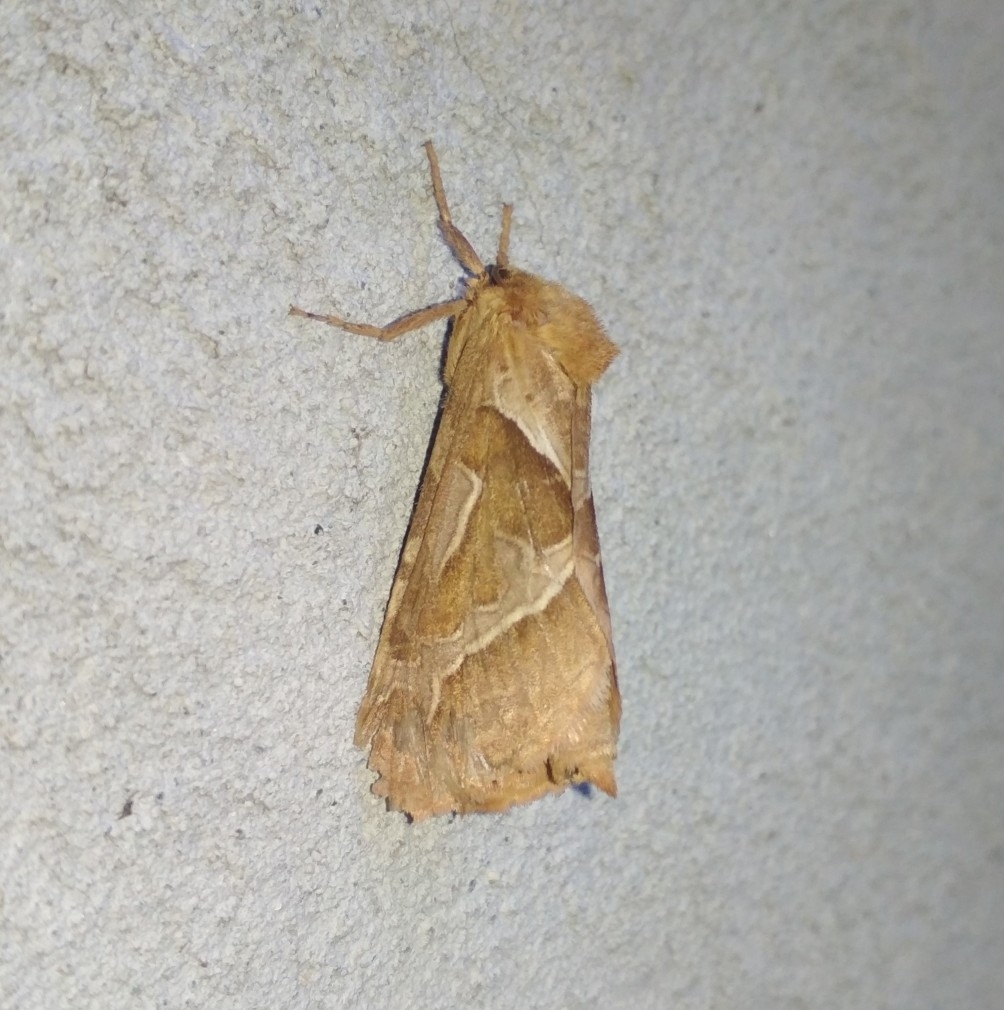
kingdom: Animalia
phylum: Arthropoda
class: Insecta
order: Lepidoptera
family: Hepialidae
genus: Triodia
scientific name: Triodia sylvina
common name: Orange swift
